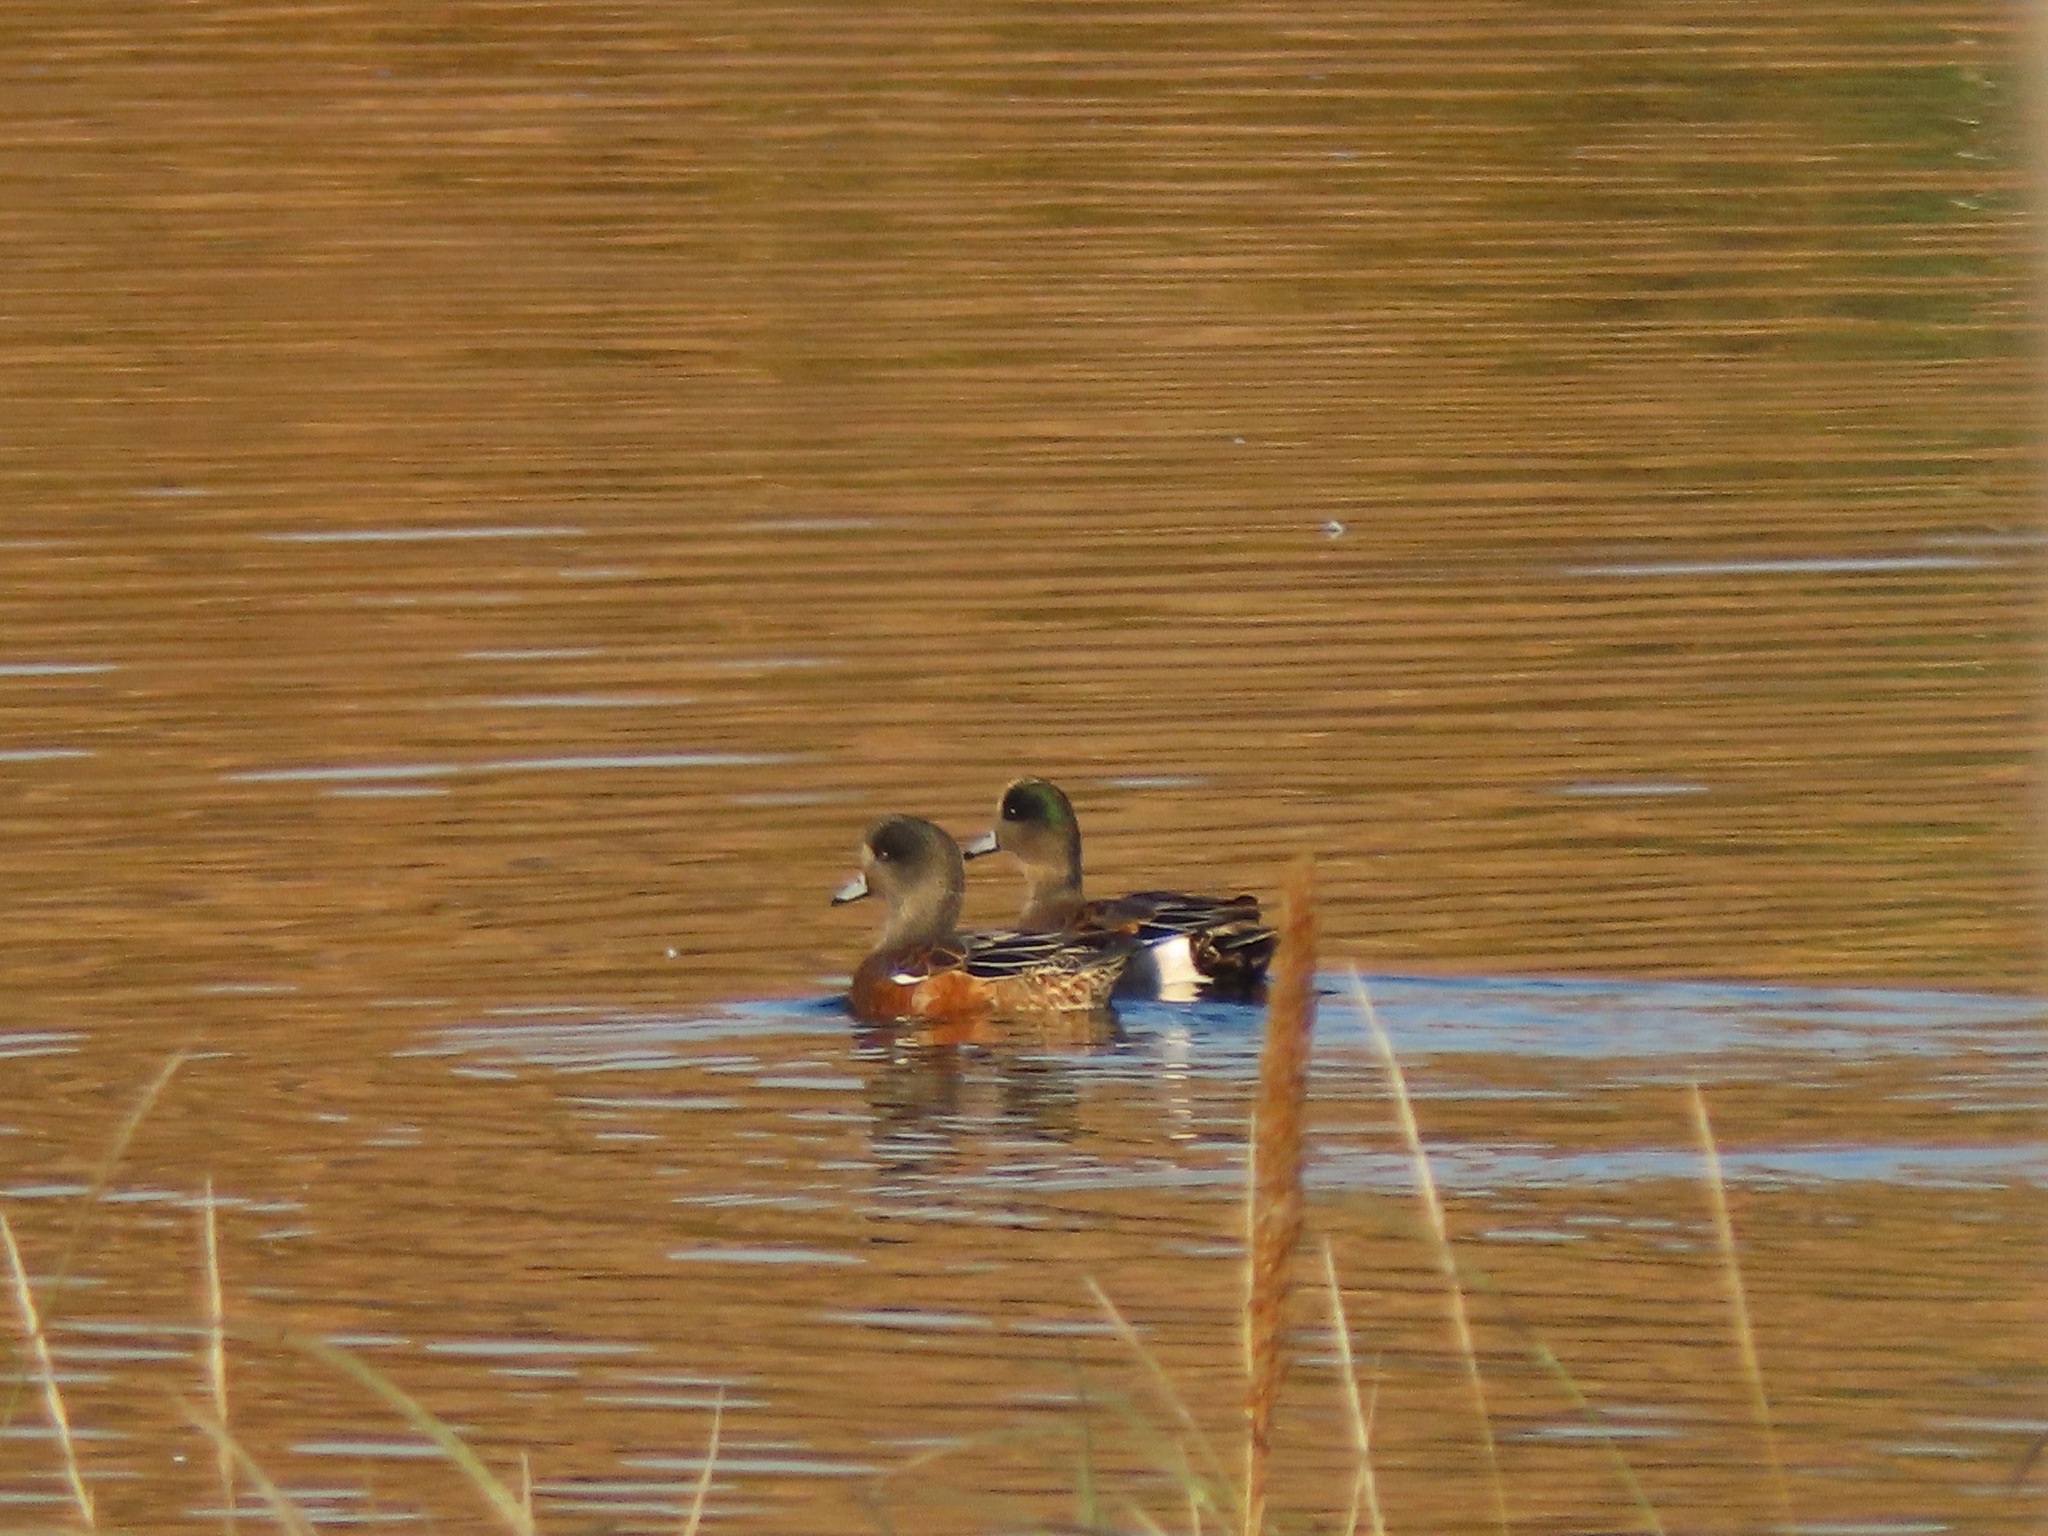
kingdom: Animalia
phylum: Chordata
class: Aves
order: Anseriformes
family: Anatidae
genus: Mareca
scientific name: Mareca americana
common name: American wigeon
